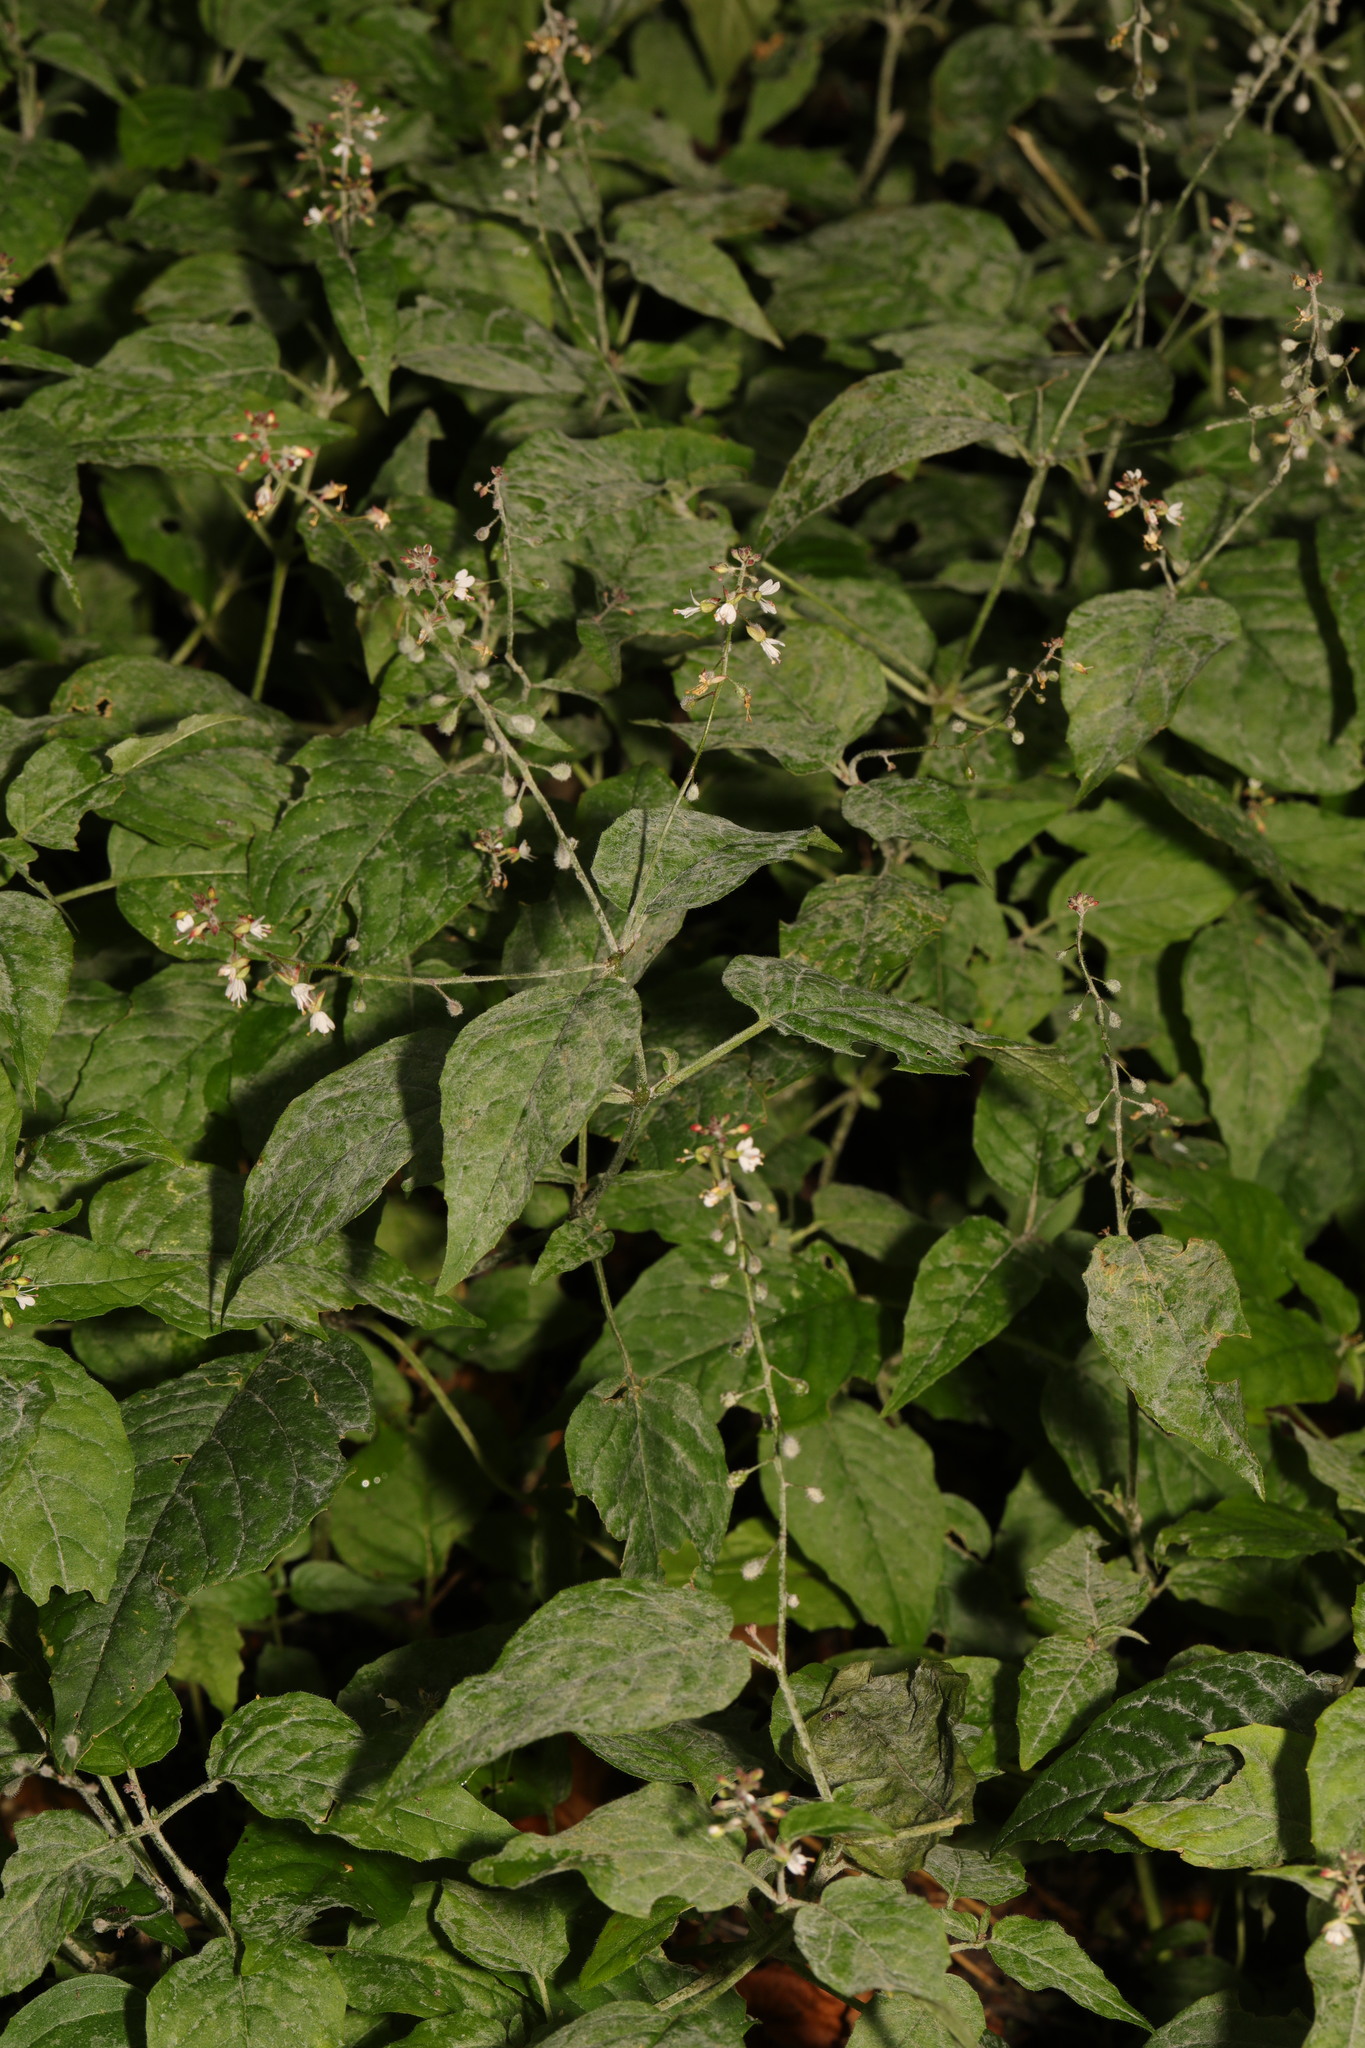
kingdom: Plantae
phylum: Tracheophyta
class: Magnoliopsida
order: Myrtales
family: Onagraceae
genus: Circaea
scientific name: Circaea lutetiana
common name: Enchanter's-nightshade
